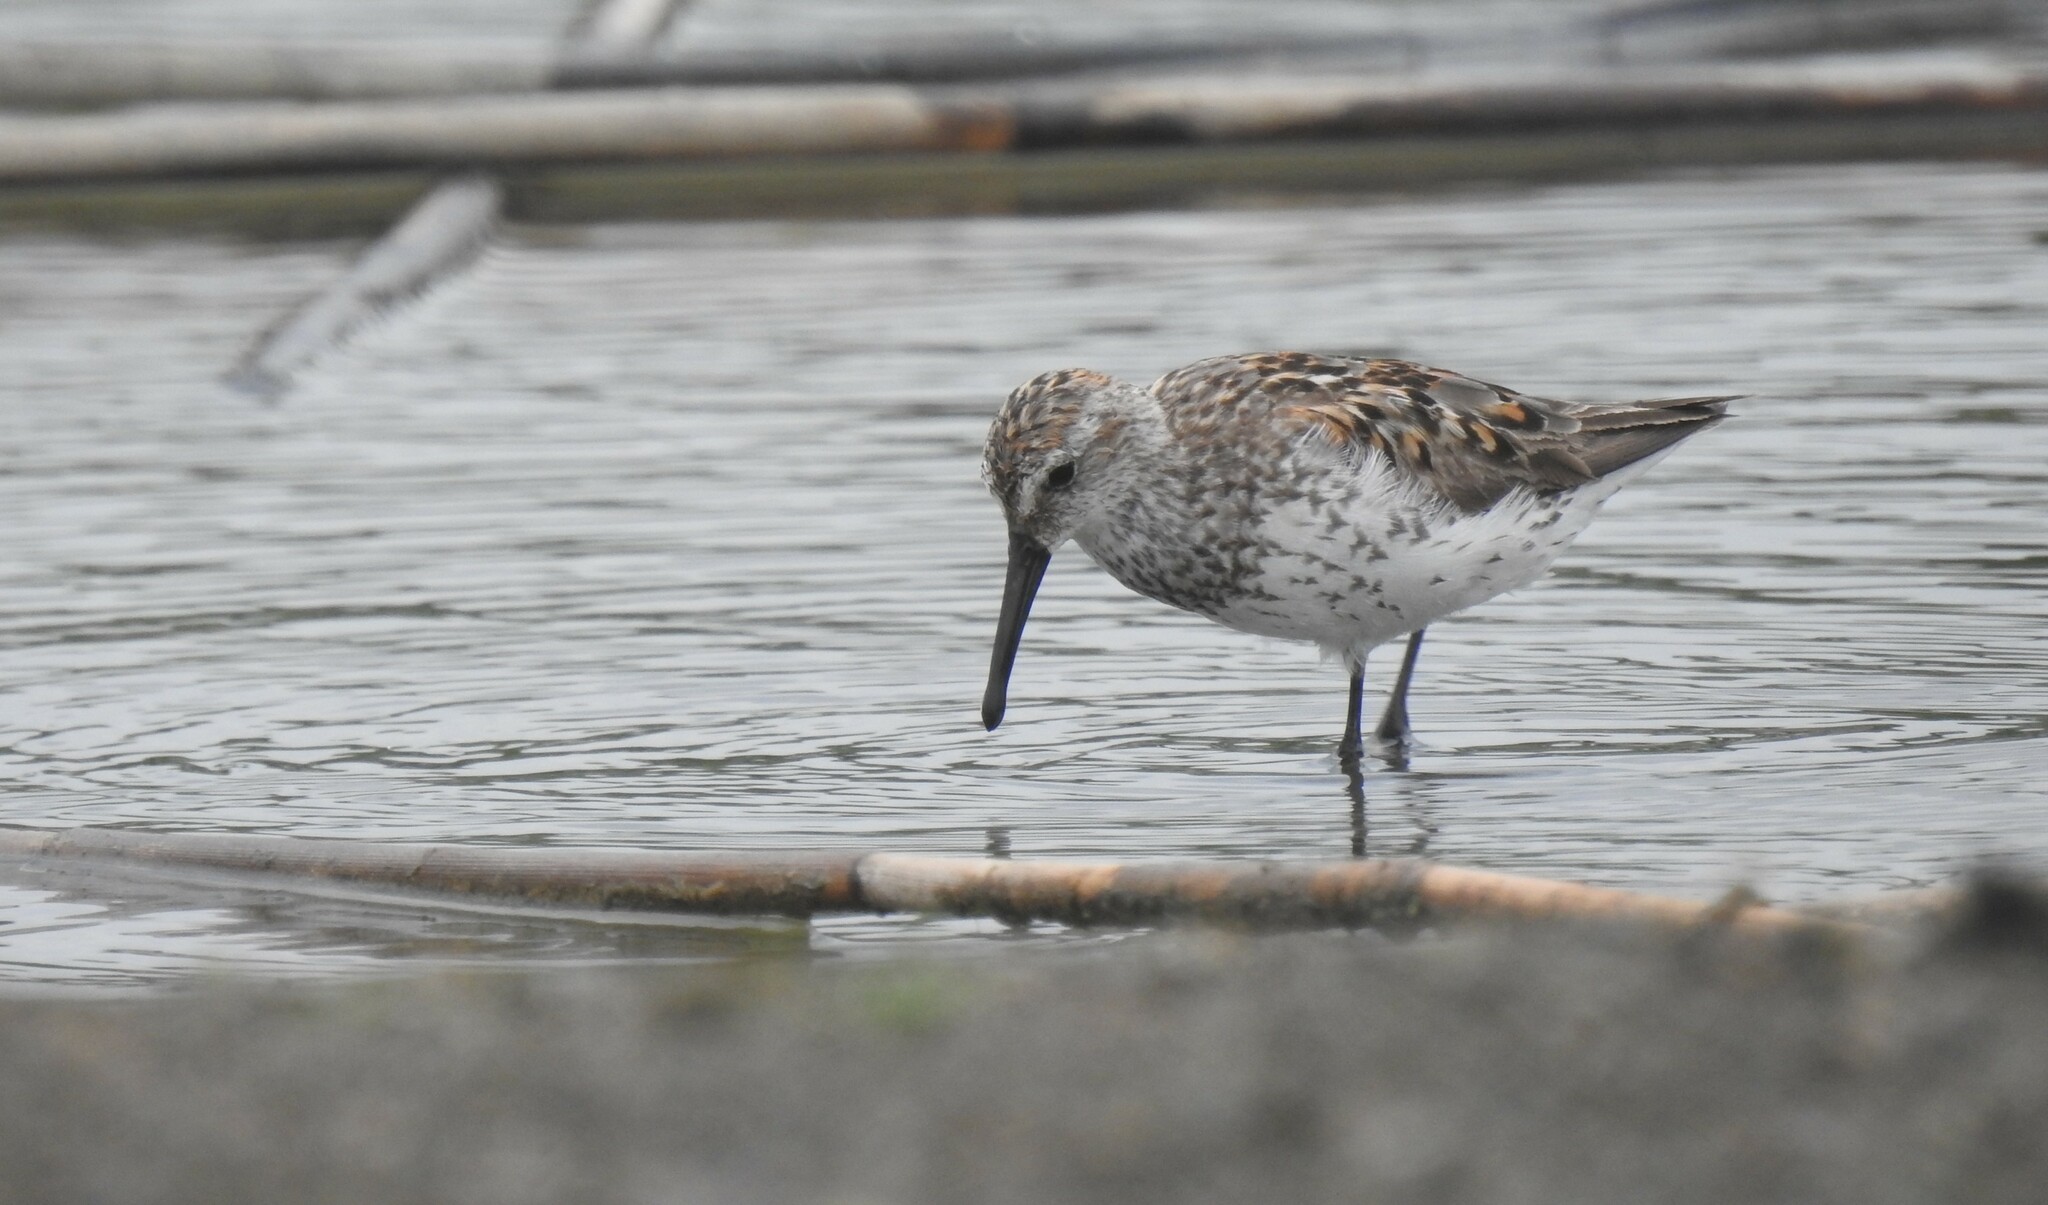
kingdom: Animalia
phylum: Chordata
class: Aves
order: Charadriiformes
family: Scolopacidae
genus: Calidris
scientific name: Calidris mauri
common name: Western sandpiper
